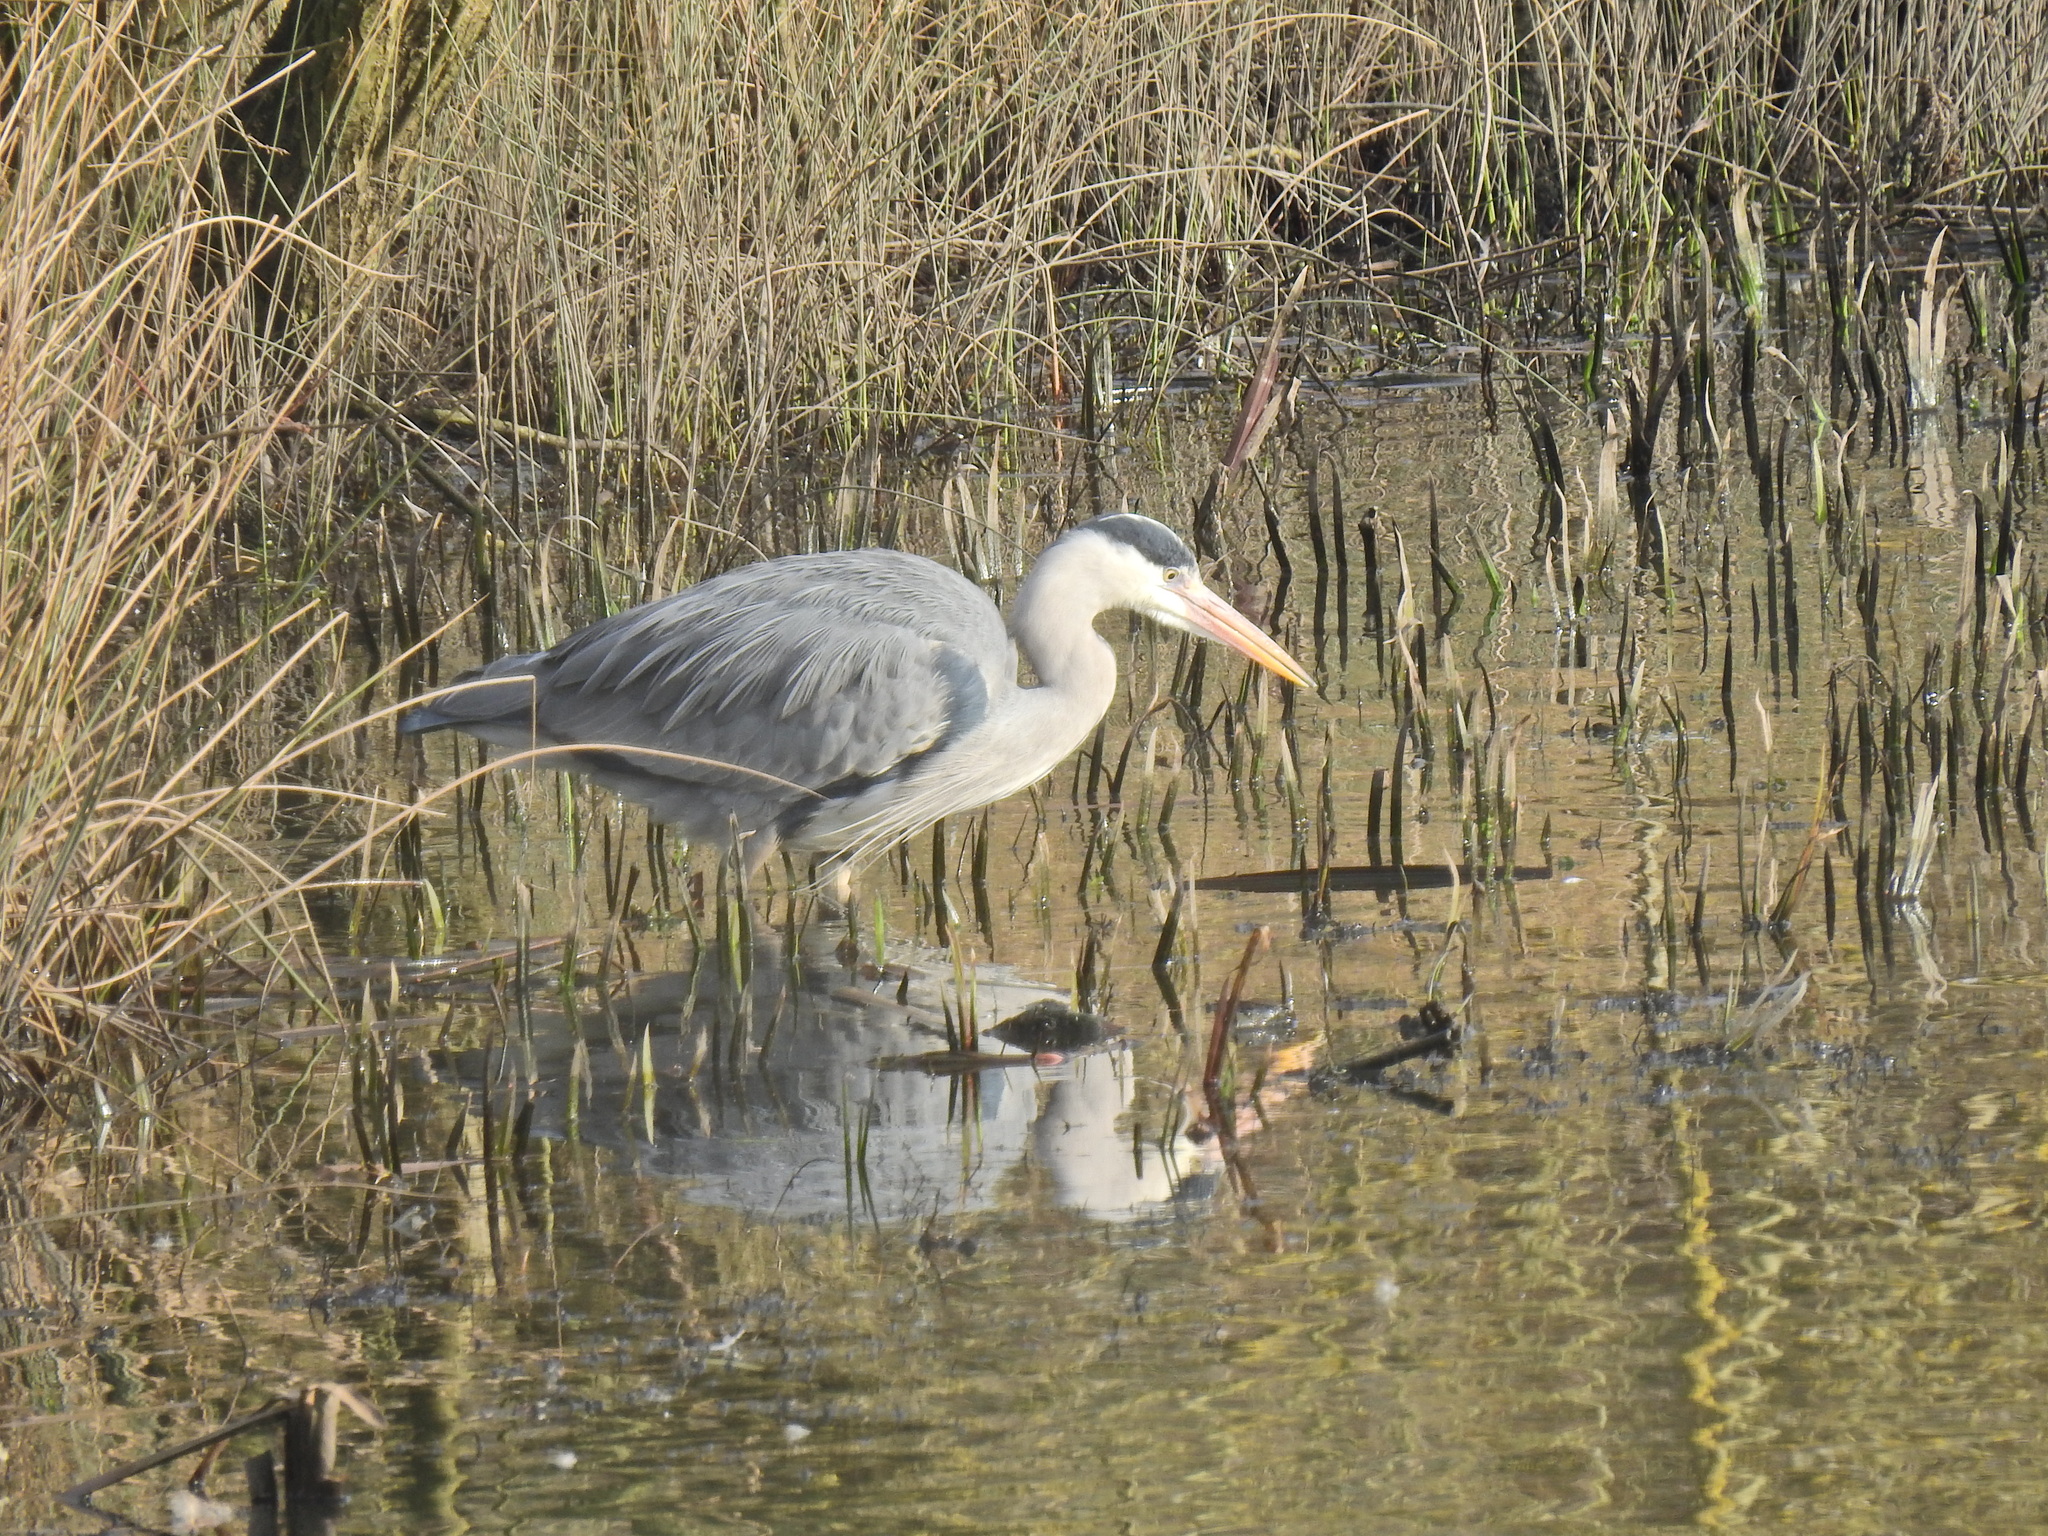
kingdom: Animalia
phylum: Chordata
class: Aves
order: Pelecaniformes
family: Ardeidae
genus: Ardea
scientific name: Ardea cinerea
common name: Grey heron
